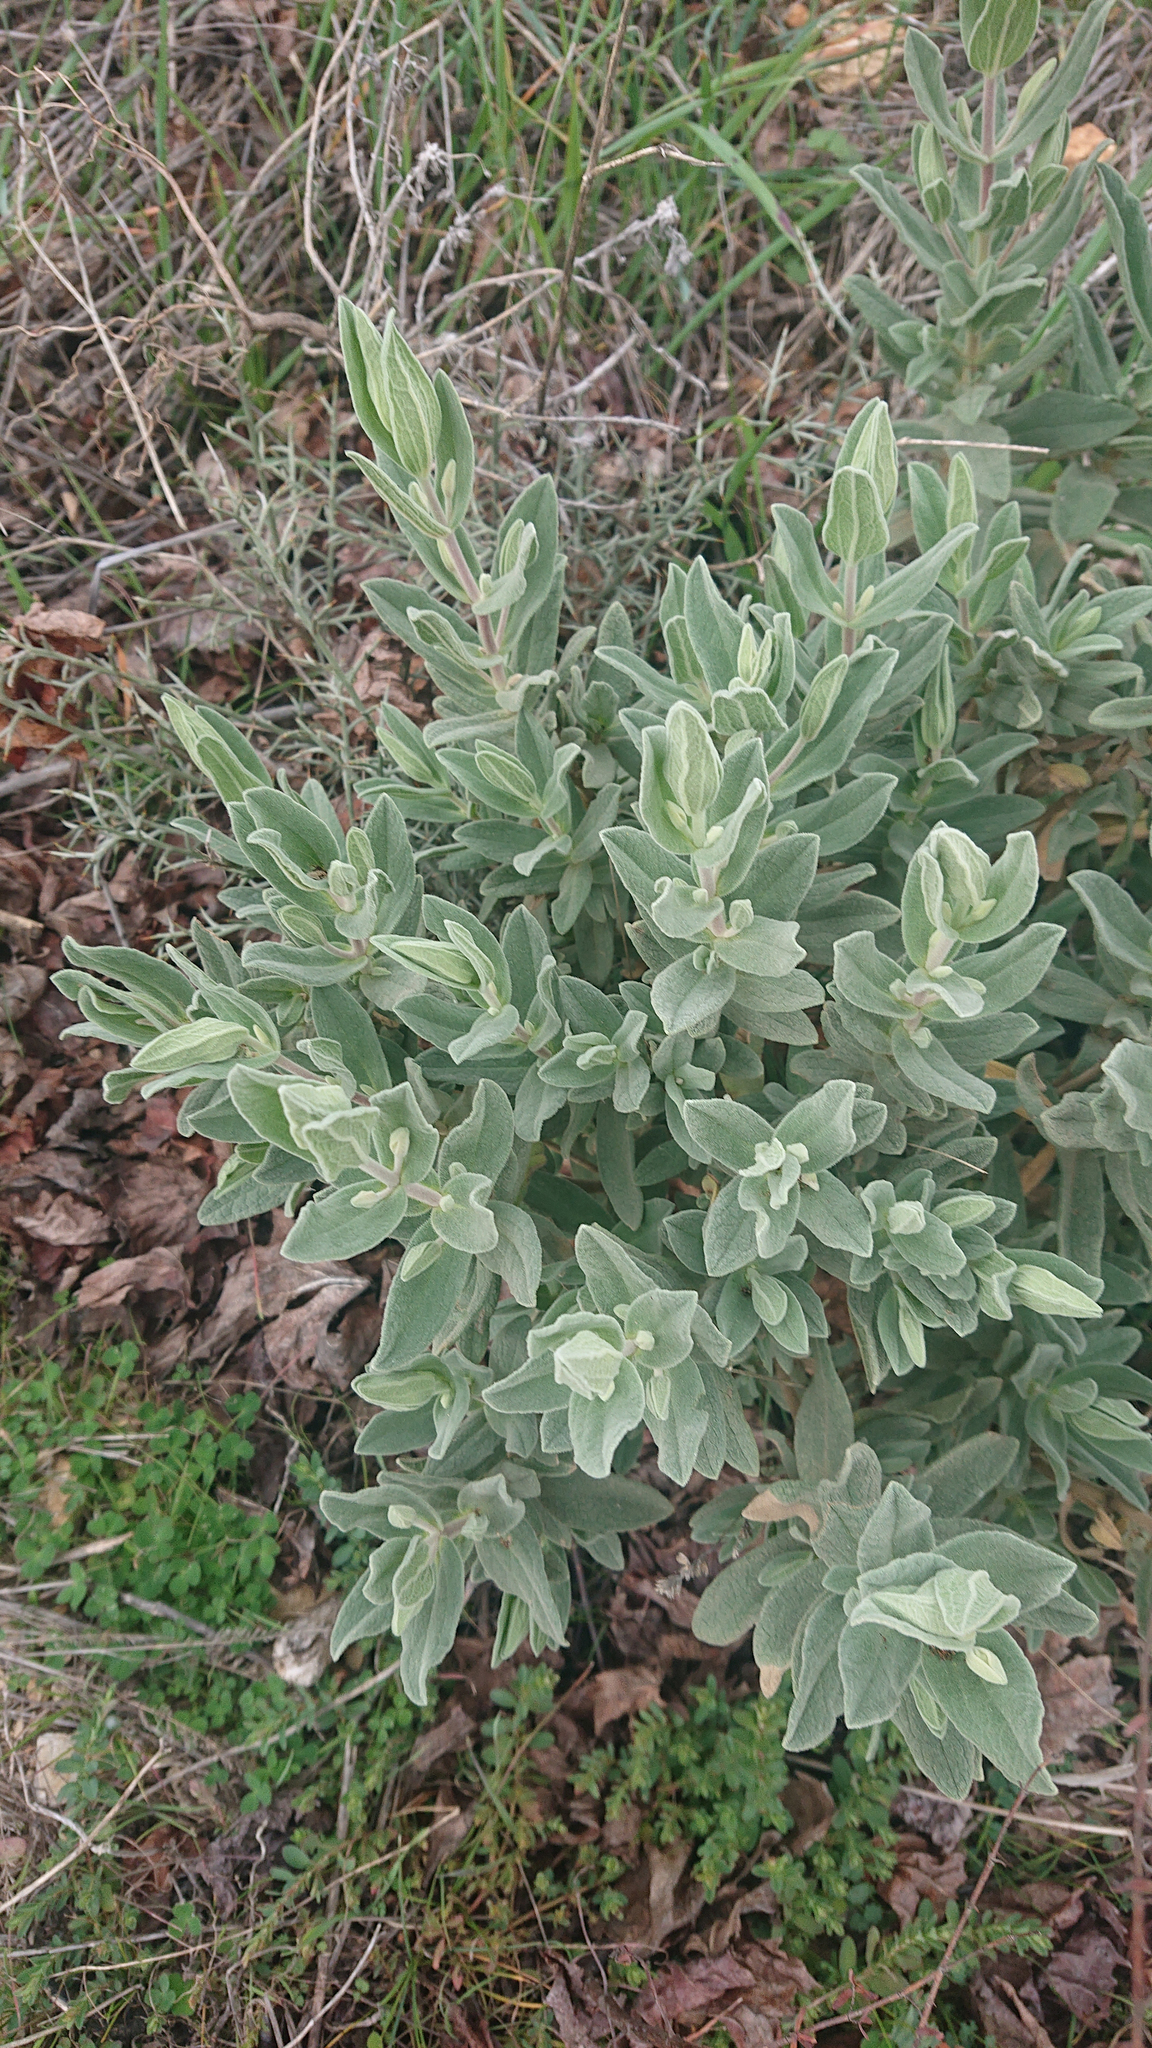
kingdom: Plantae
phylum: Tracheophyta
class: Magnoliopsida
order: Malvales
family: Cistaceae
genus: Cistus
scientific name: Cistus albidus
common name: White-leaf rock-rose
